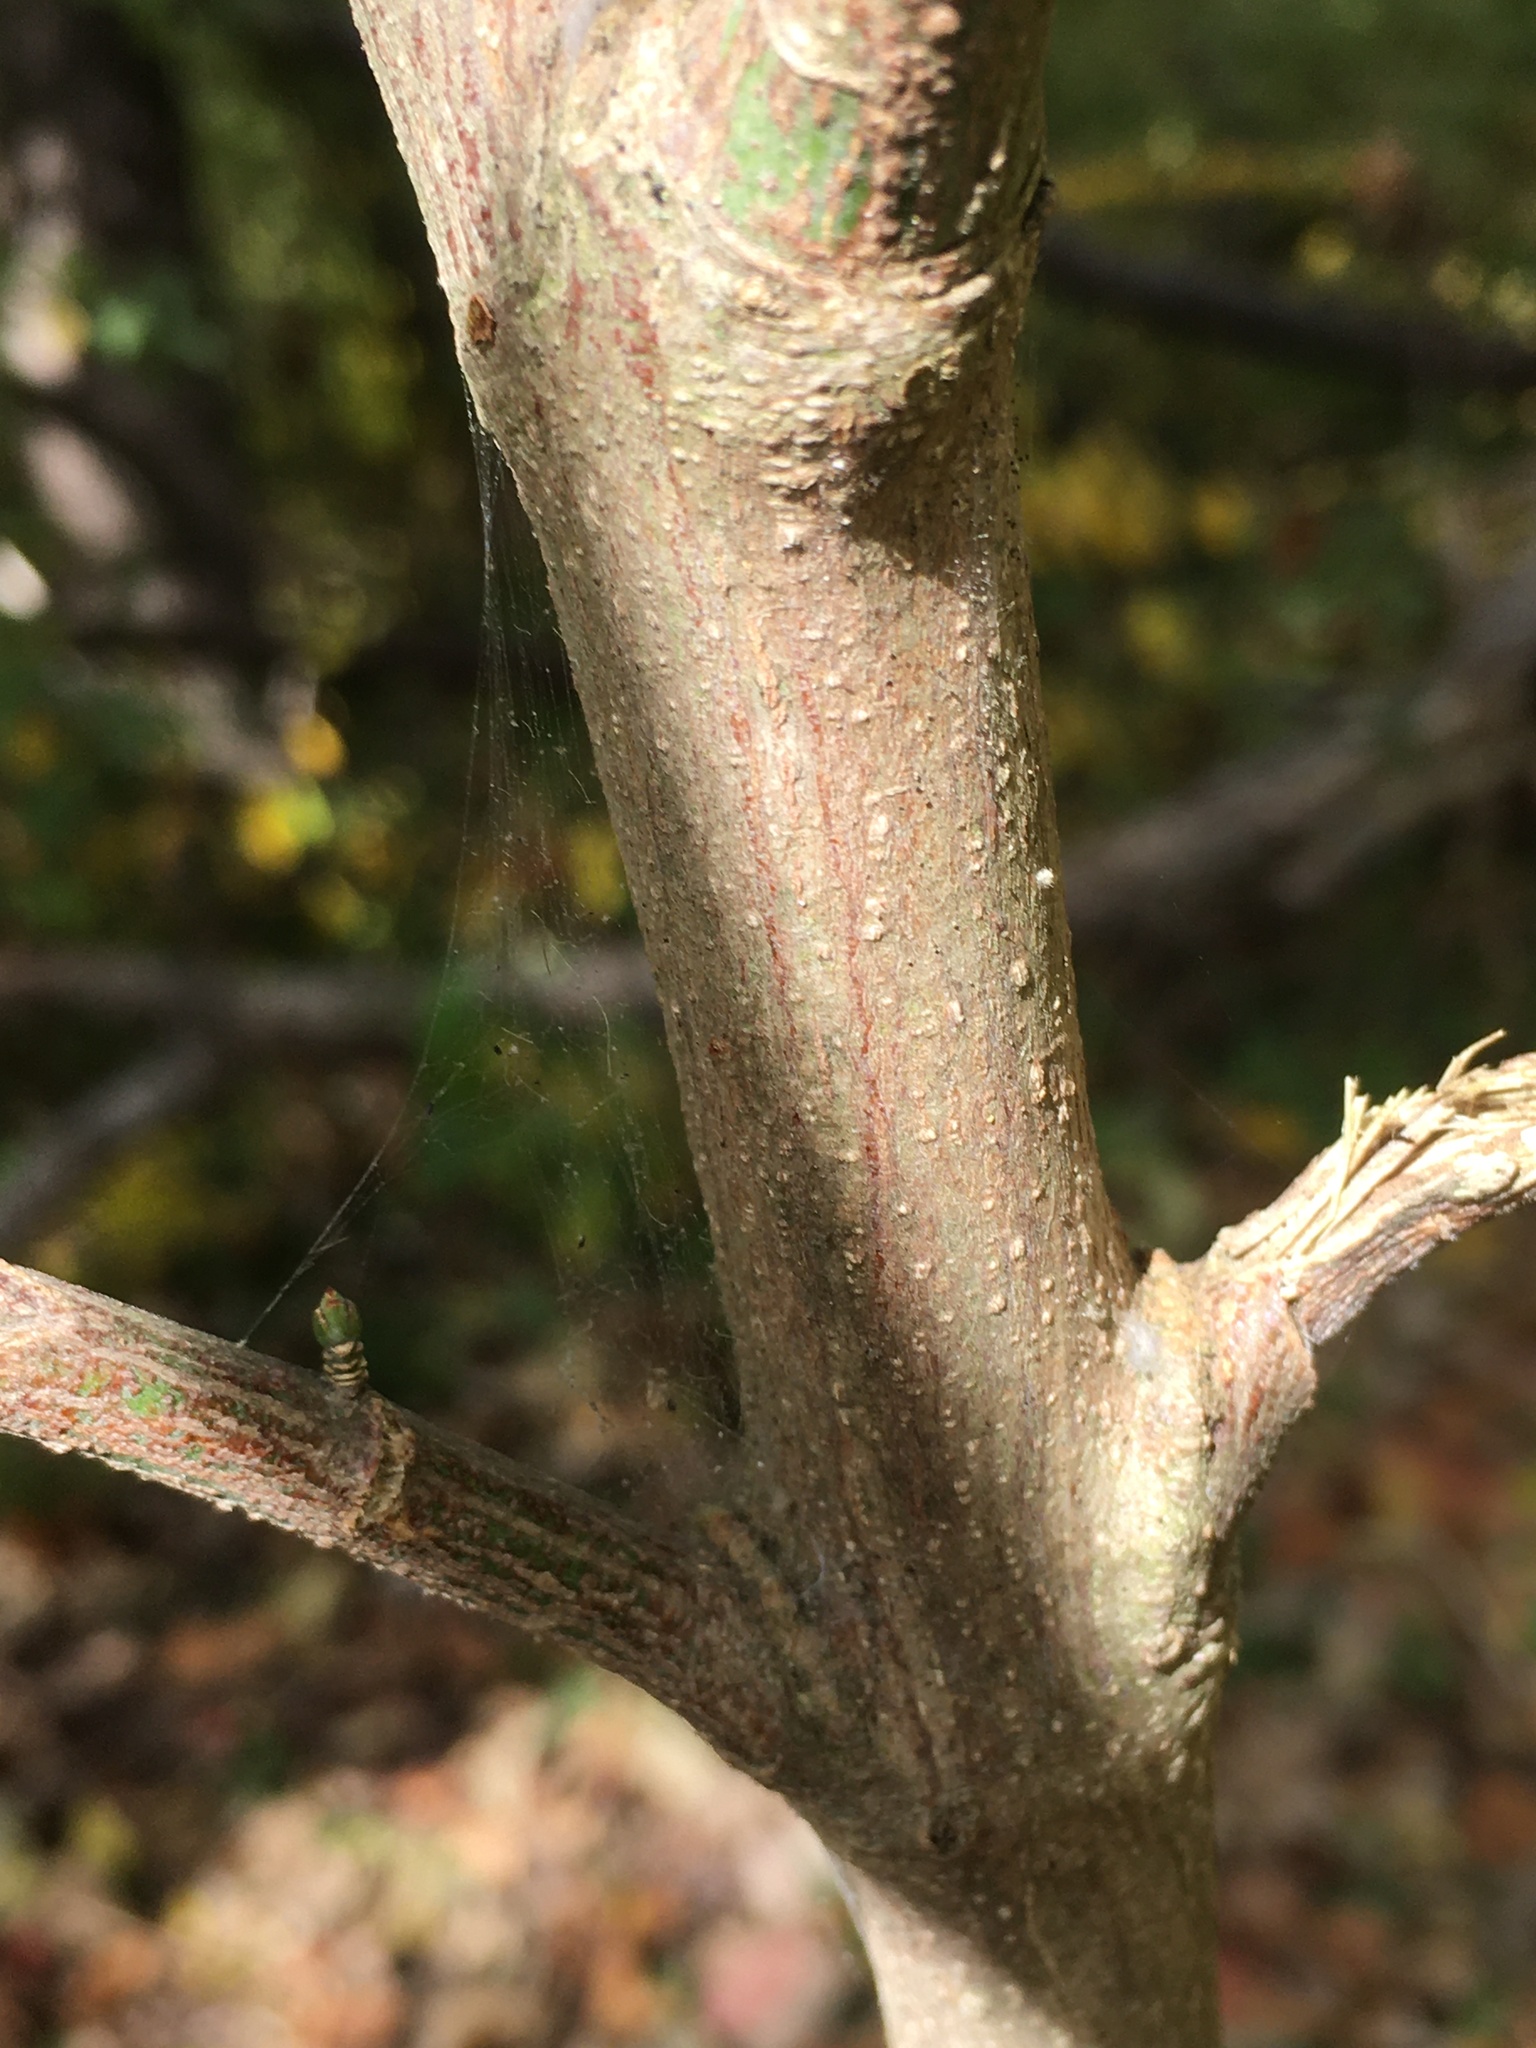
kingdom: Plantae
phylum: Tracheophyta
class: Magnoliopsida
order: Celastrales
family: Celastraceae
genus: Euonymus
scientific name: Euonymus atropurpureus
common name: Eastern wahoo
